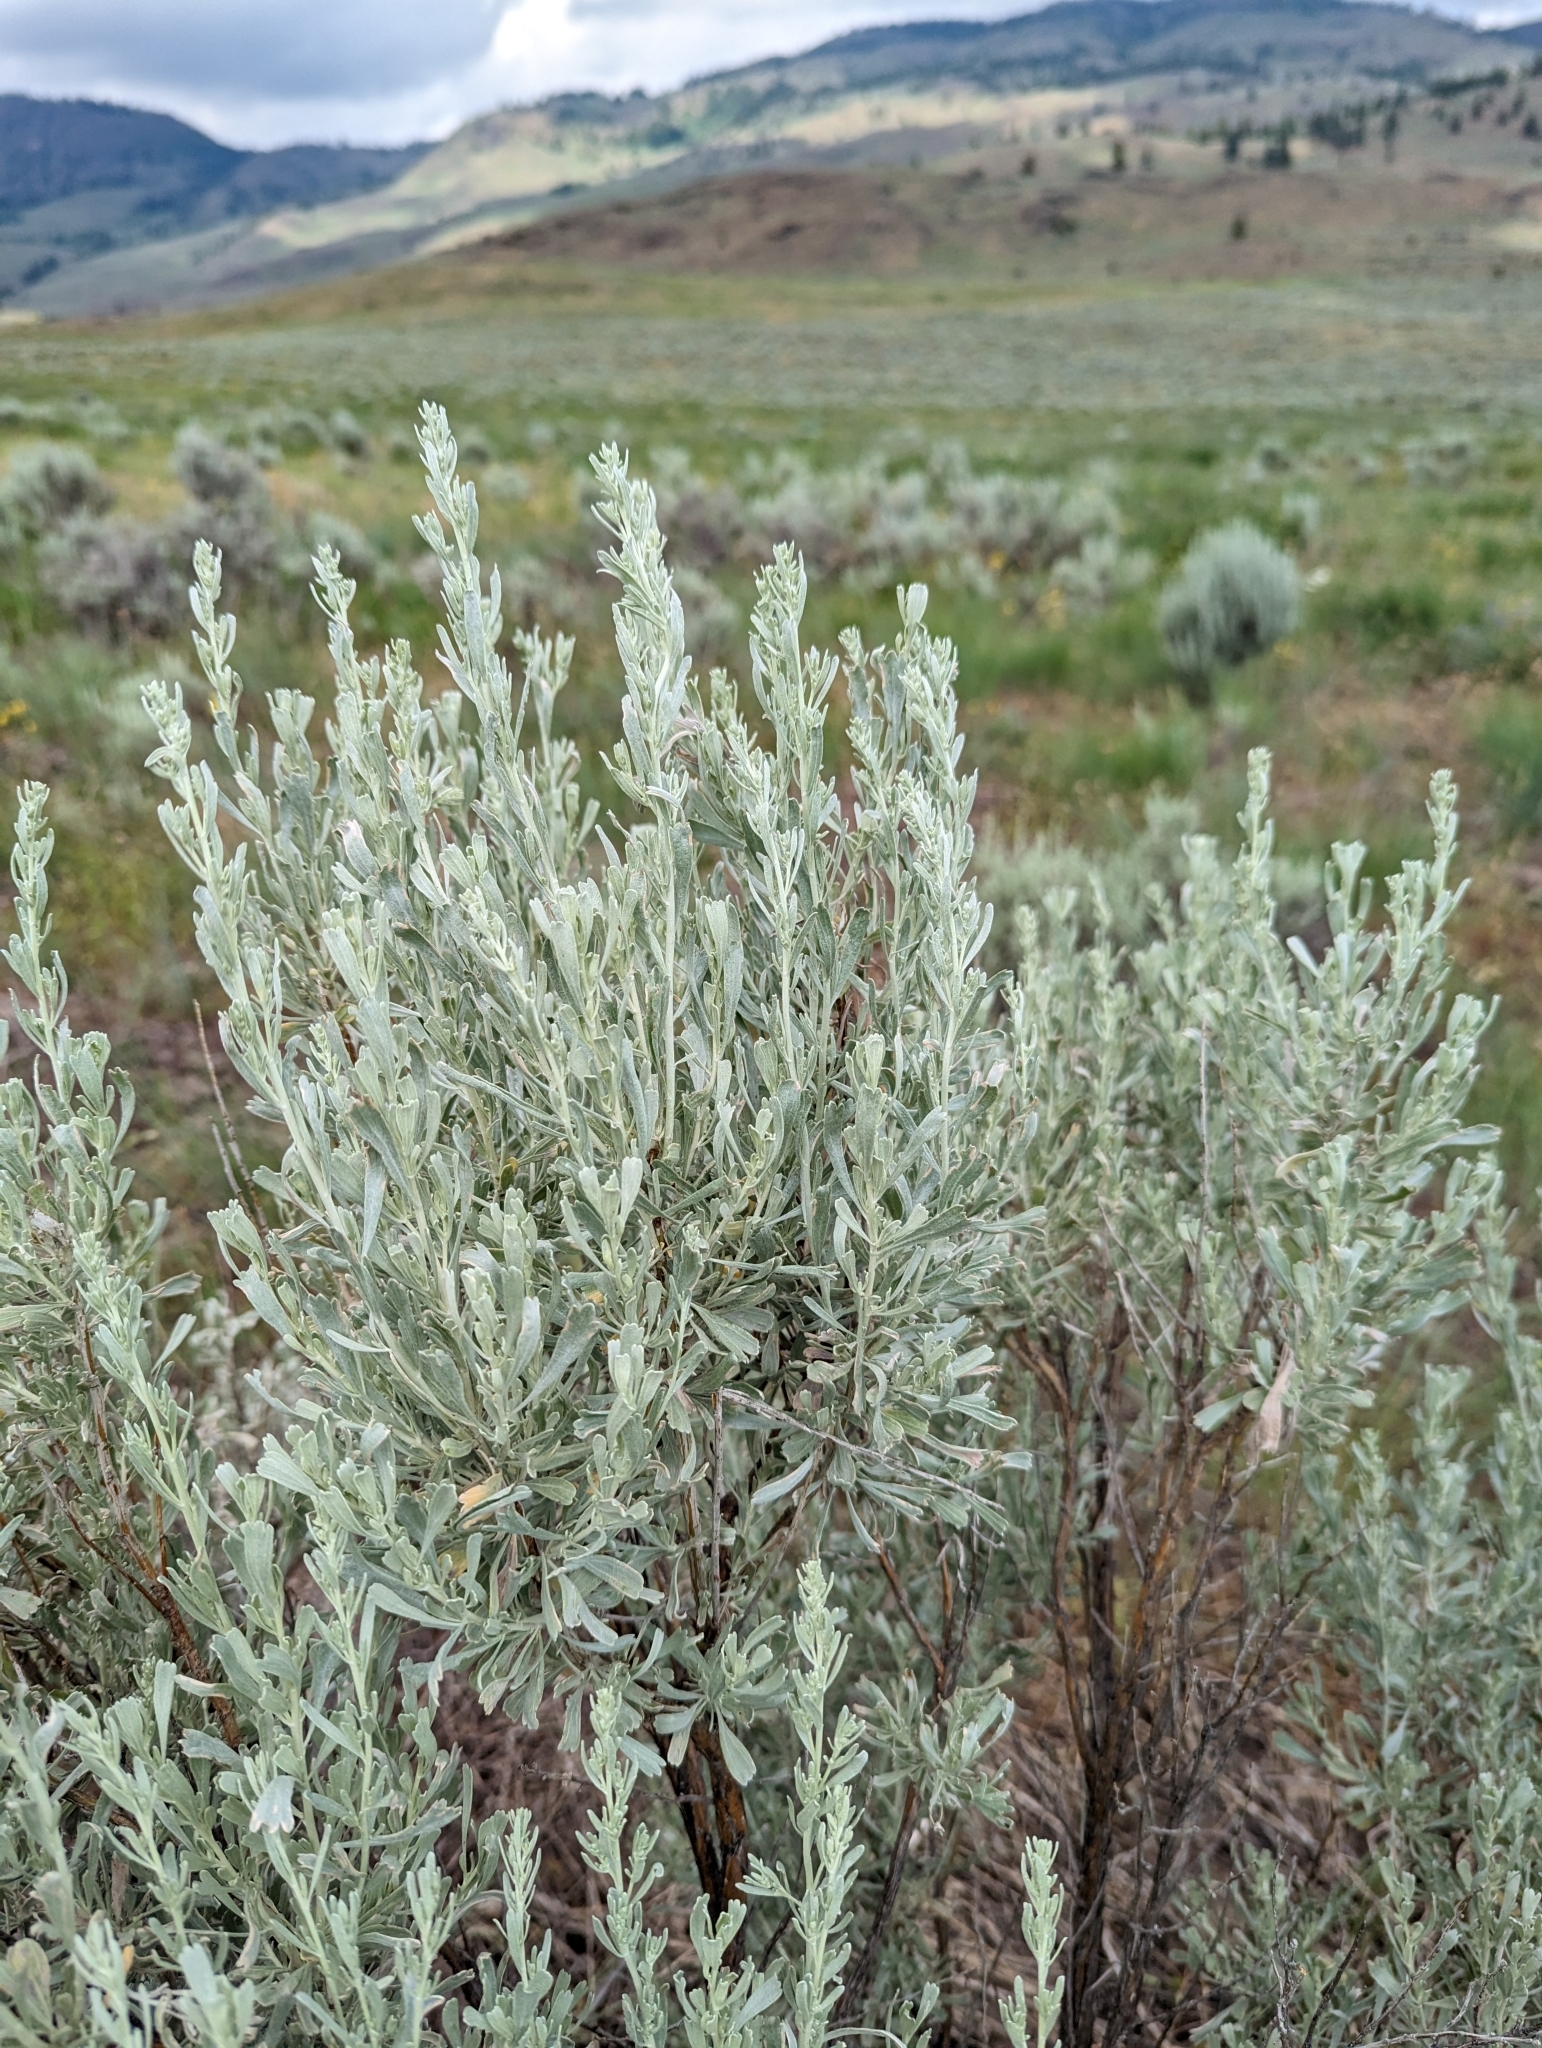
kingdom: Plantae
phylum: Tracheophyta
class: Magnoliopsida
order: Asterales
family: Asteraceae
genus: Artemisia
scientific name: Artemisia tridentata
